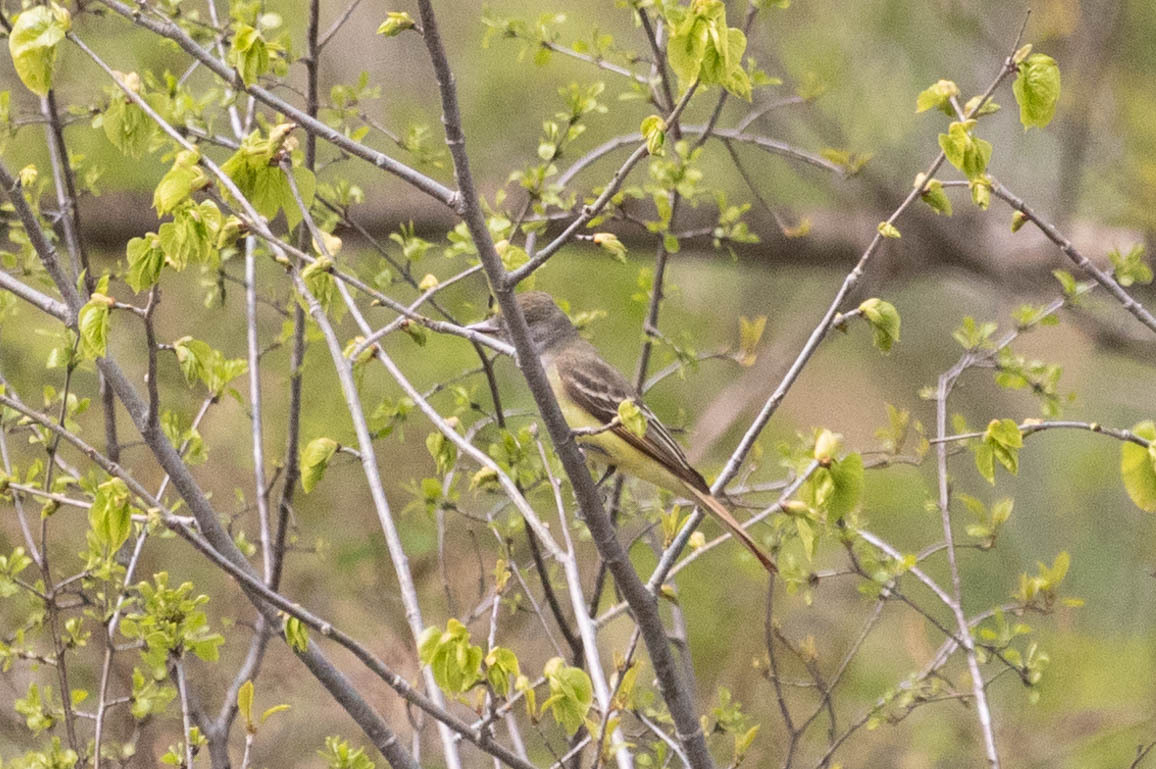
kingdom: Animalia
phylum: Chordata
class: Aves
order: Passeriformes
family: Tyrannidae
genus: Myiarchus
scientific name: Myiarchus crinitus
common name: Great crested flycatcher
